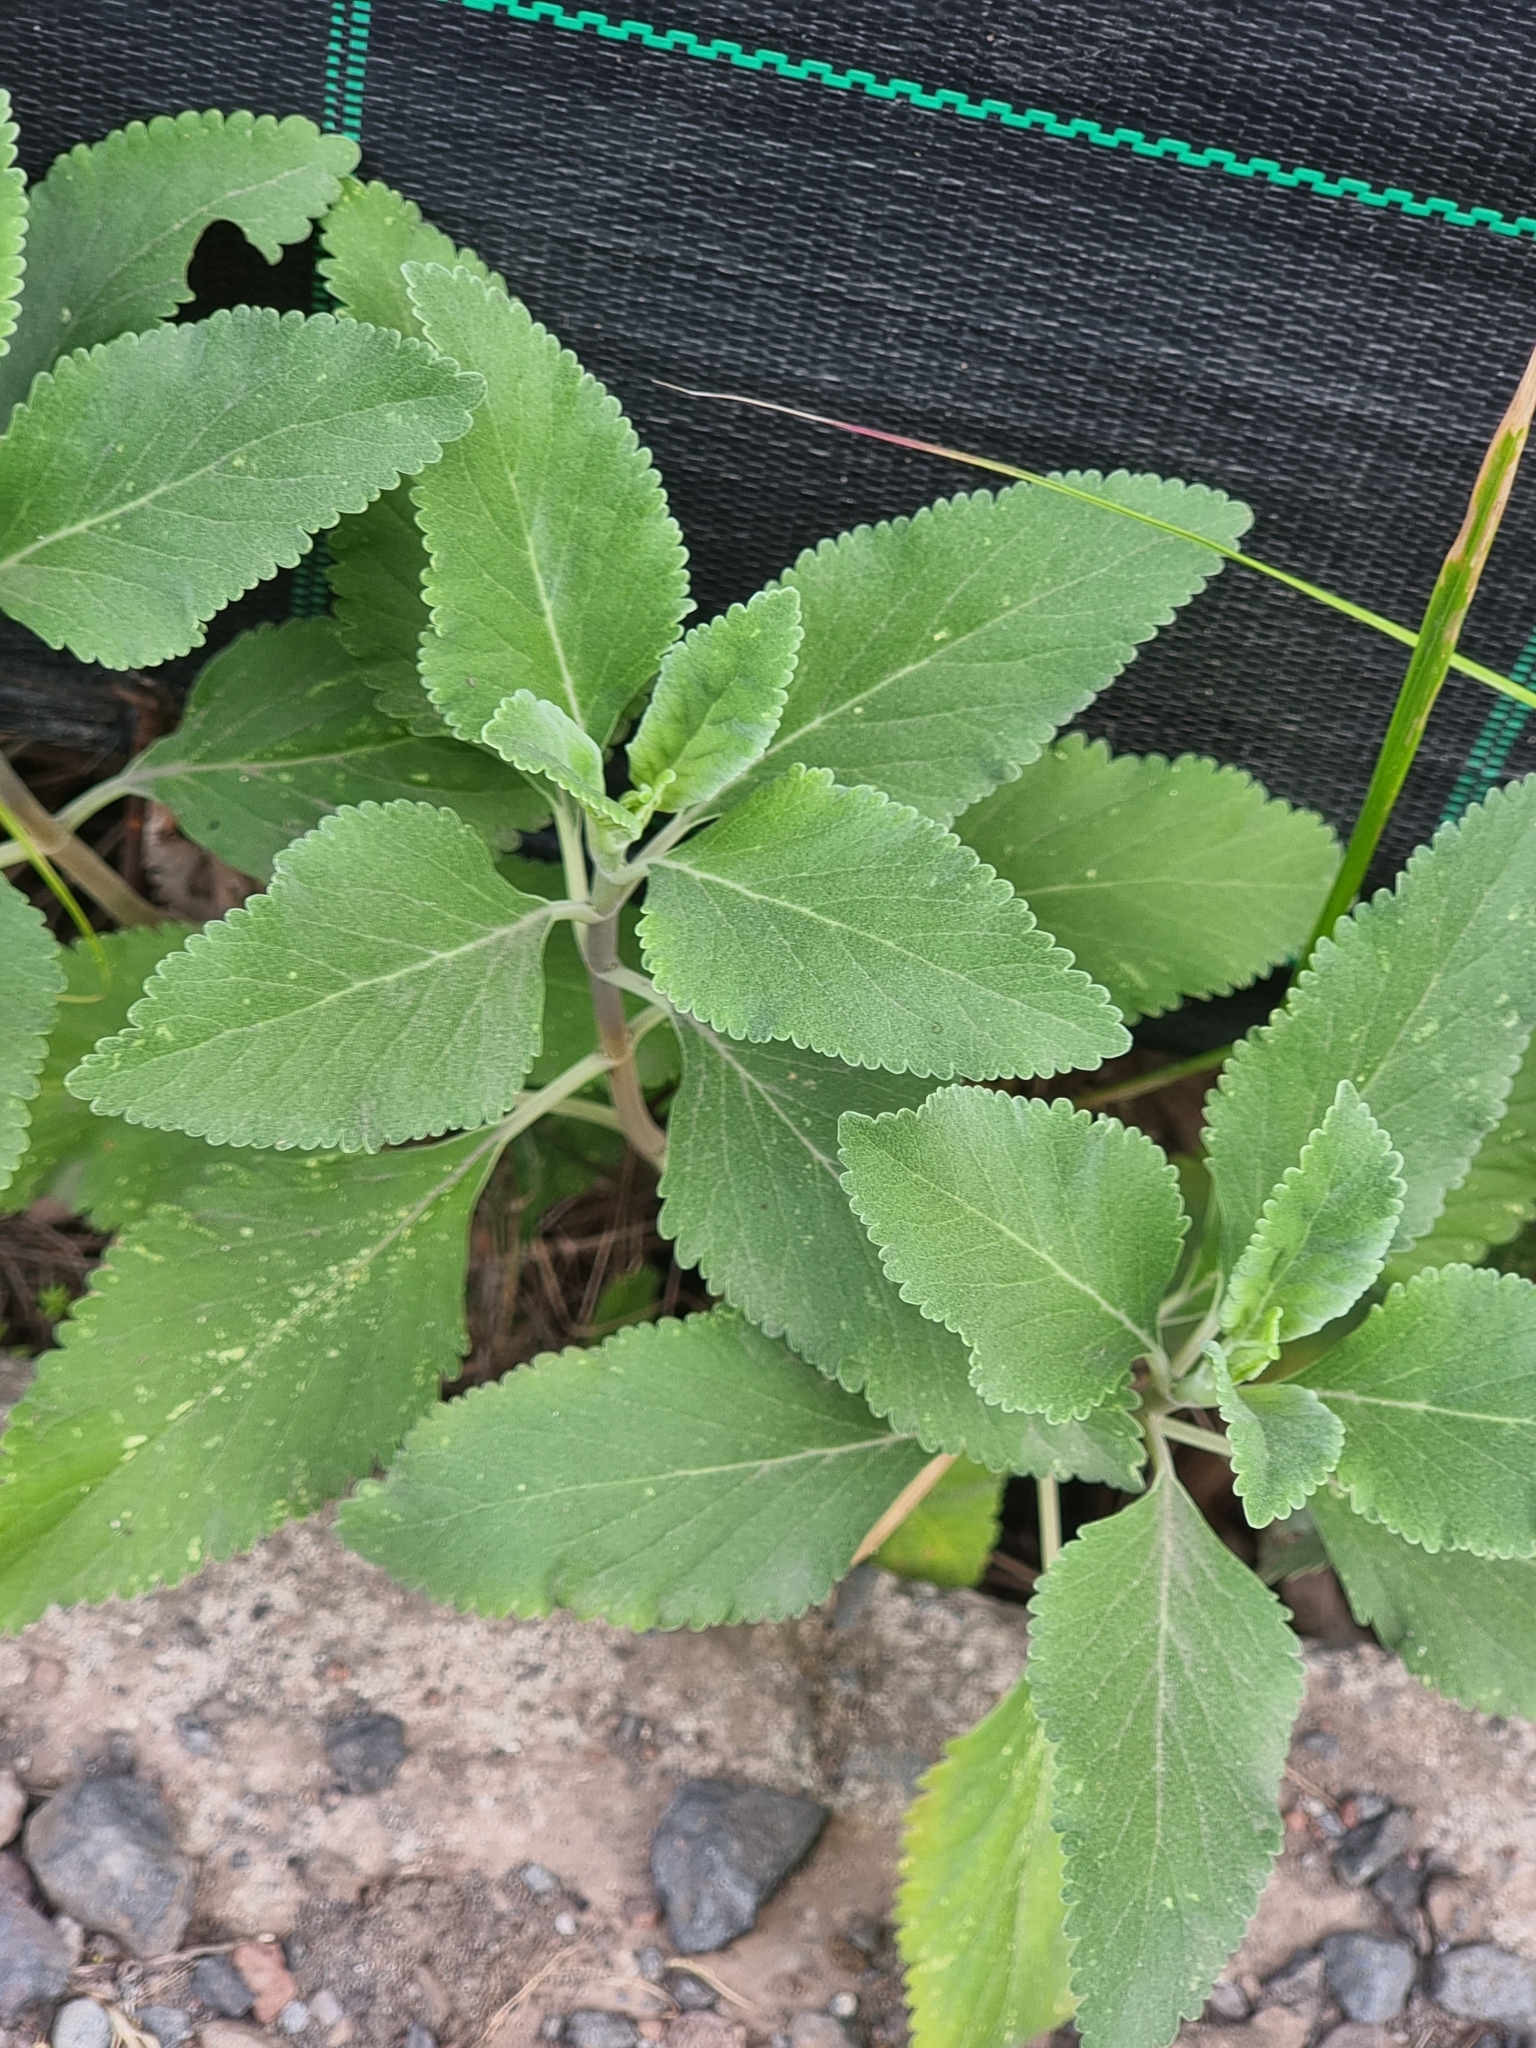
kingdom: Plantae
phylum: Tracheophyta
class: Magnoliopsida
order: Lamiales
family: Lamiaceae
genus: Teucrium
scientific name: Teucrium betonicum
